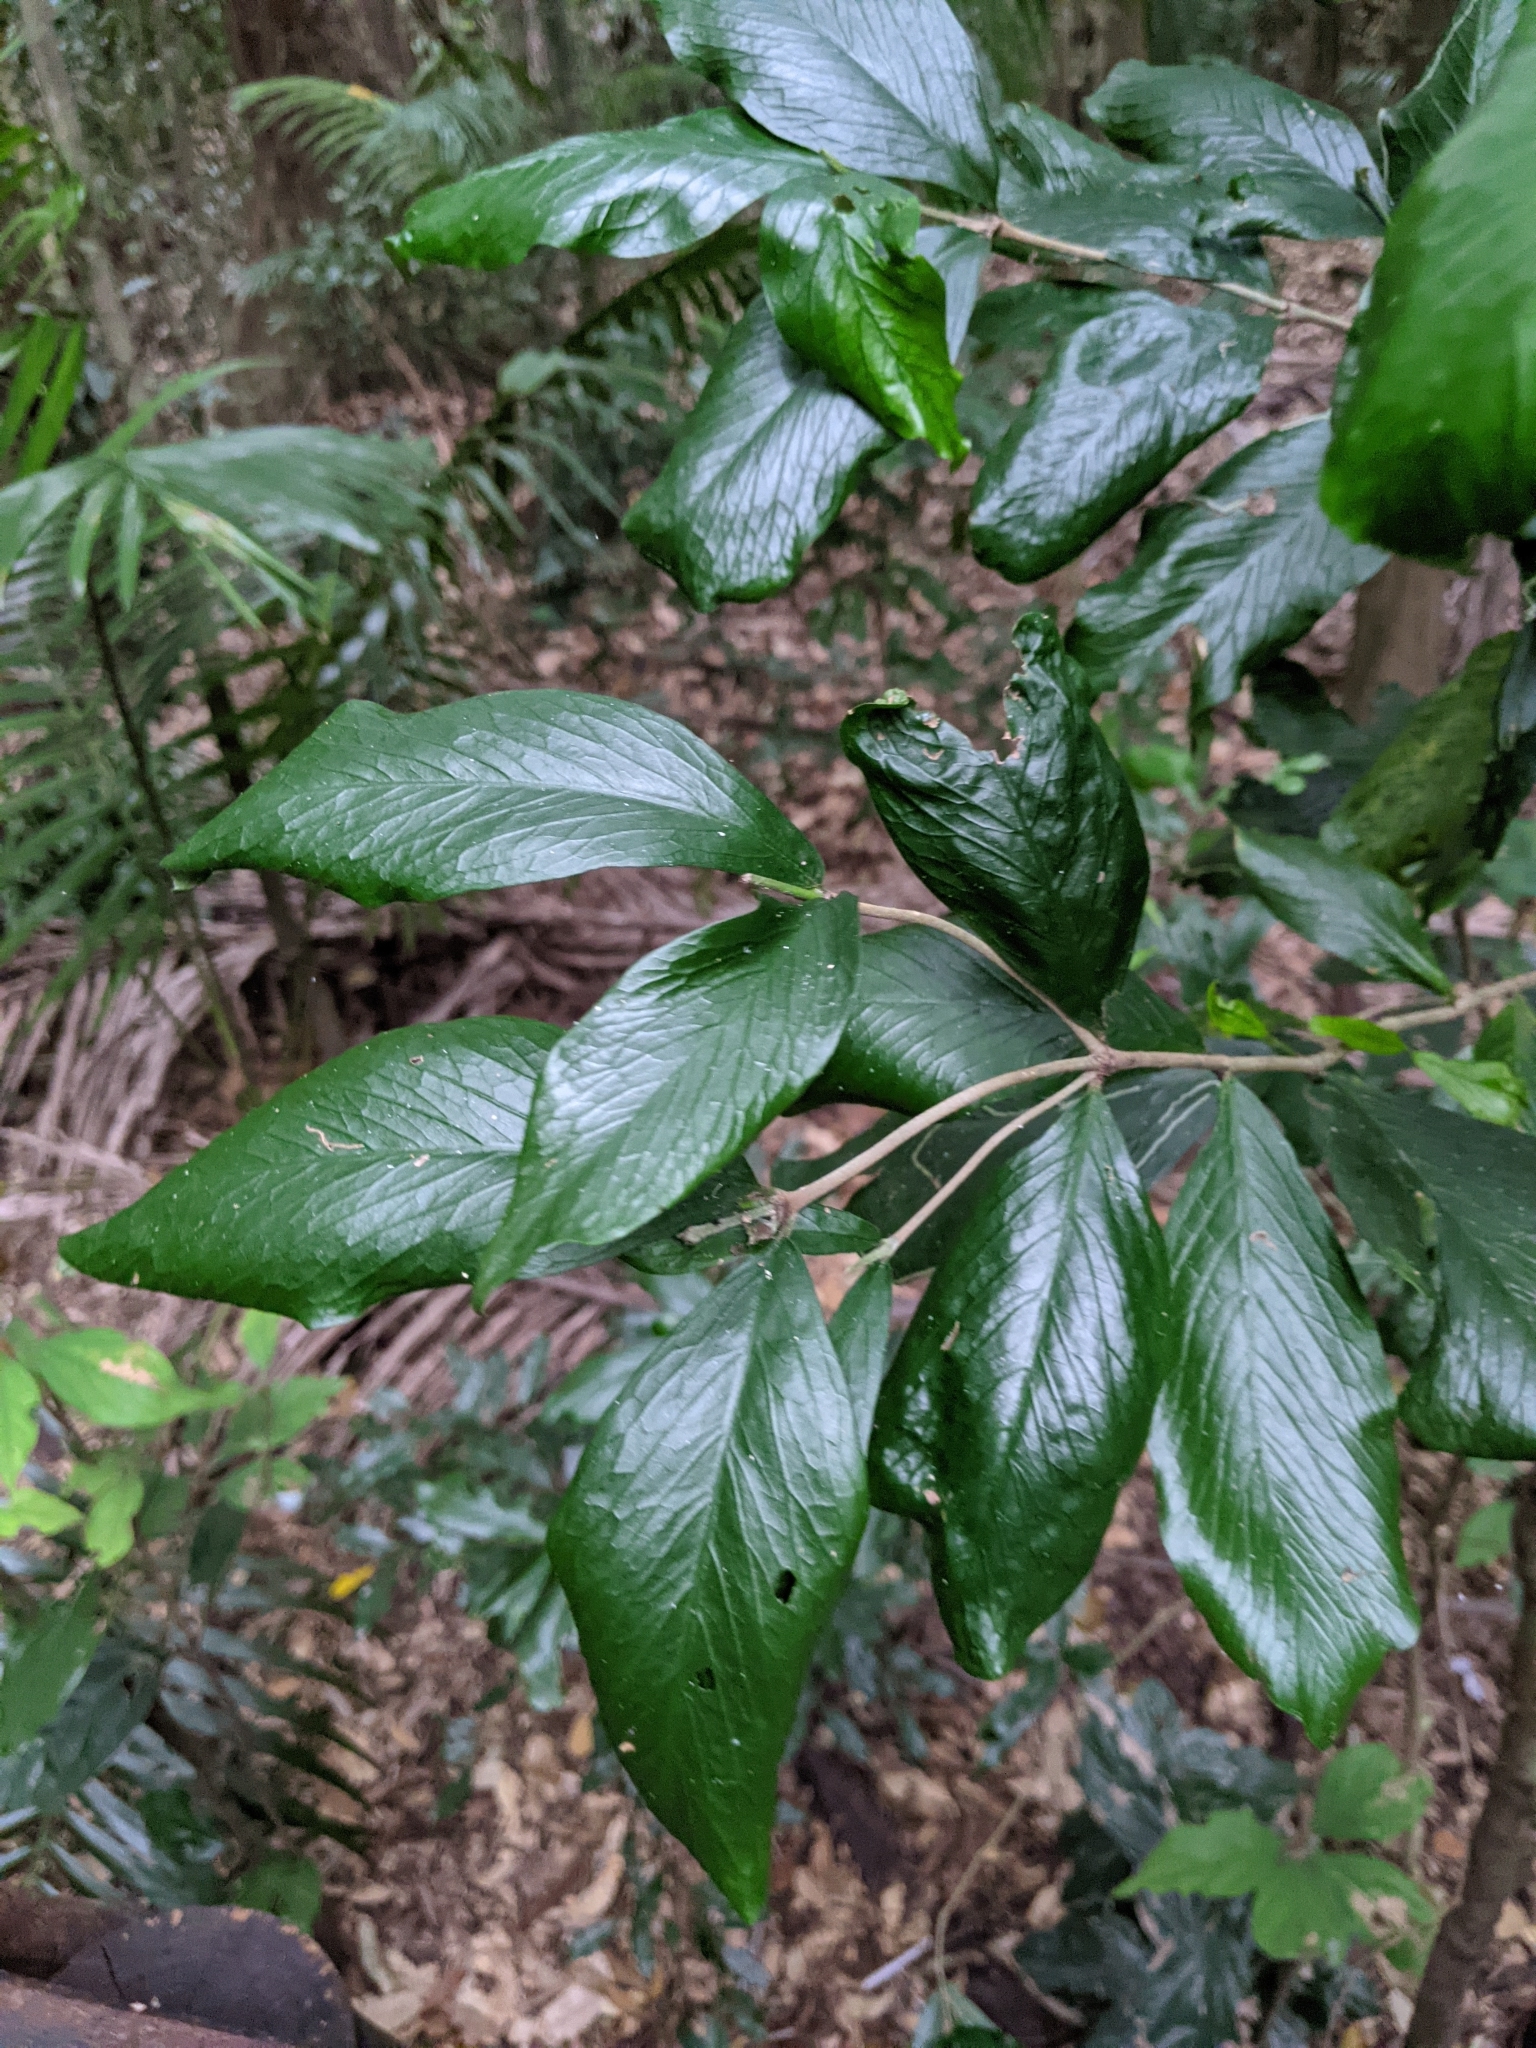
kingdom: Plantae
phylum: Tracheophyta
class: Magnoliopsida
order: Gentianales
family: Rubiaceae
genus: Atractocarpus
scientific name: Atractocarpus chartaceus
